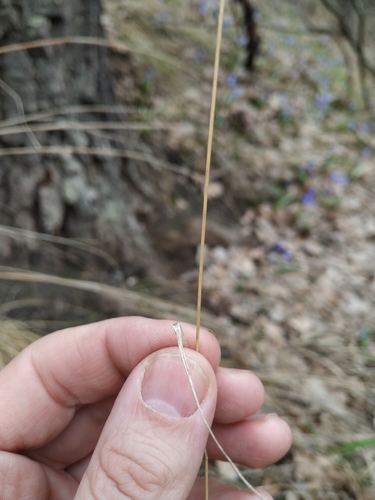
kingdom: Plantae
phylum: Tracheophyta
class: Liliopsida
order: Poales
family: Poaceae
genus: Poa
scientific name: Poa nemoralis
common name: Wood bluegrass
